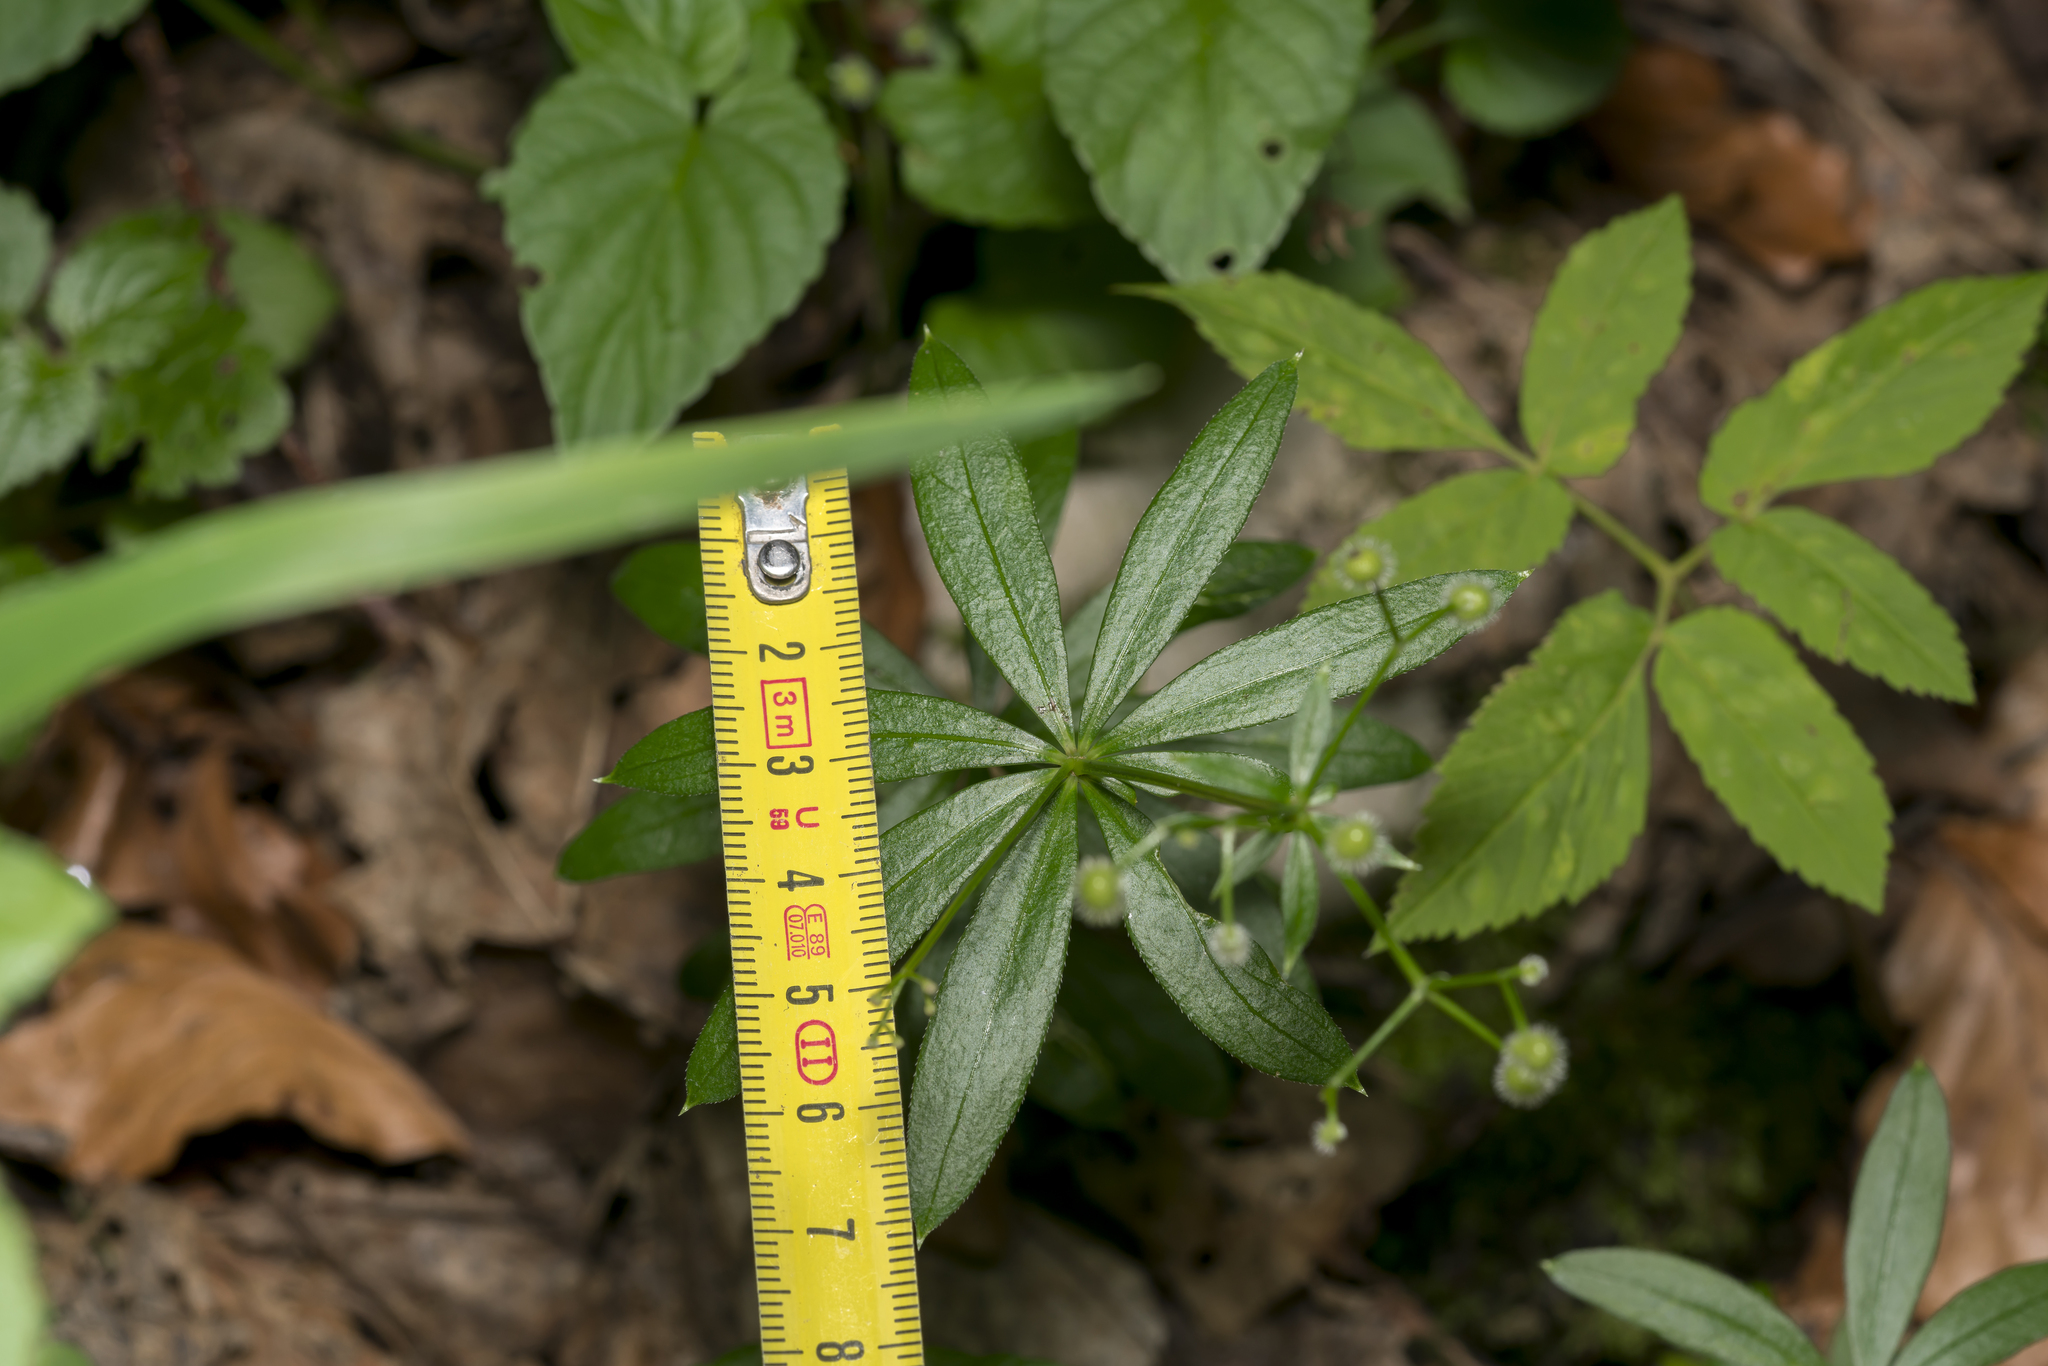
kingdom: Plantae
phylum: Tracheophyta
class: Magnoliopsida
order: Gentianales
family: Rubiaceae
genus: Galium
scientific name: Galium odoratum
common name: Sweet woodruff
